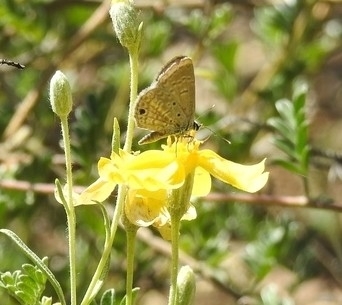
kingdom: Animalia
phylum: Arthropoda
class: Insecta
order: Lepidoptera
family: Lycaenidae
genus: Hemiargus
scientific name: Hemiargus ceraunus
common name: Ceraunus blue
